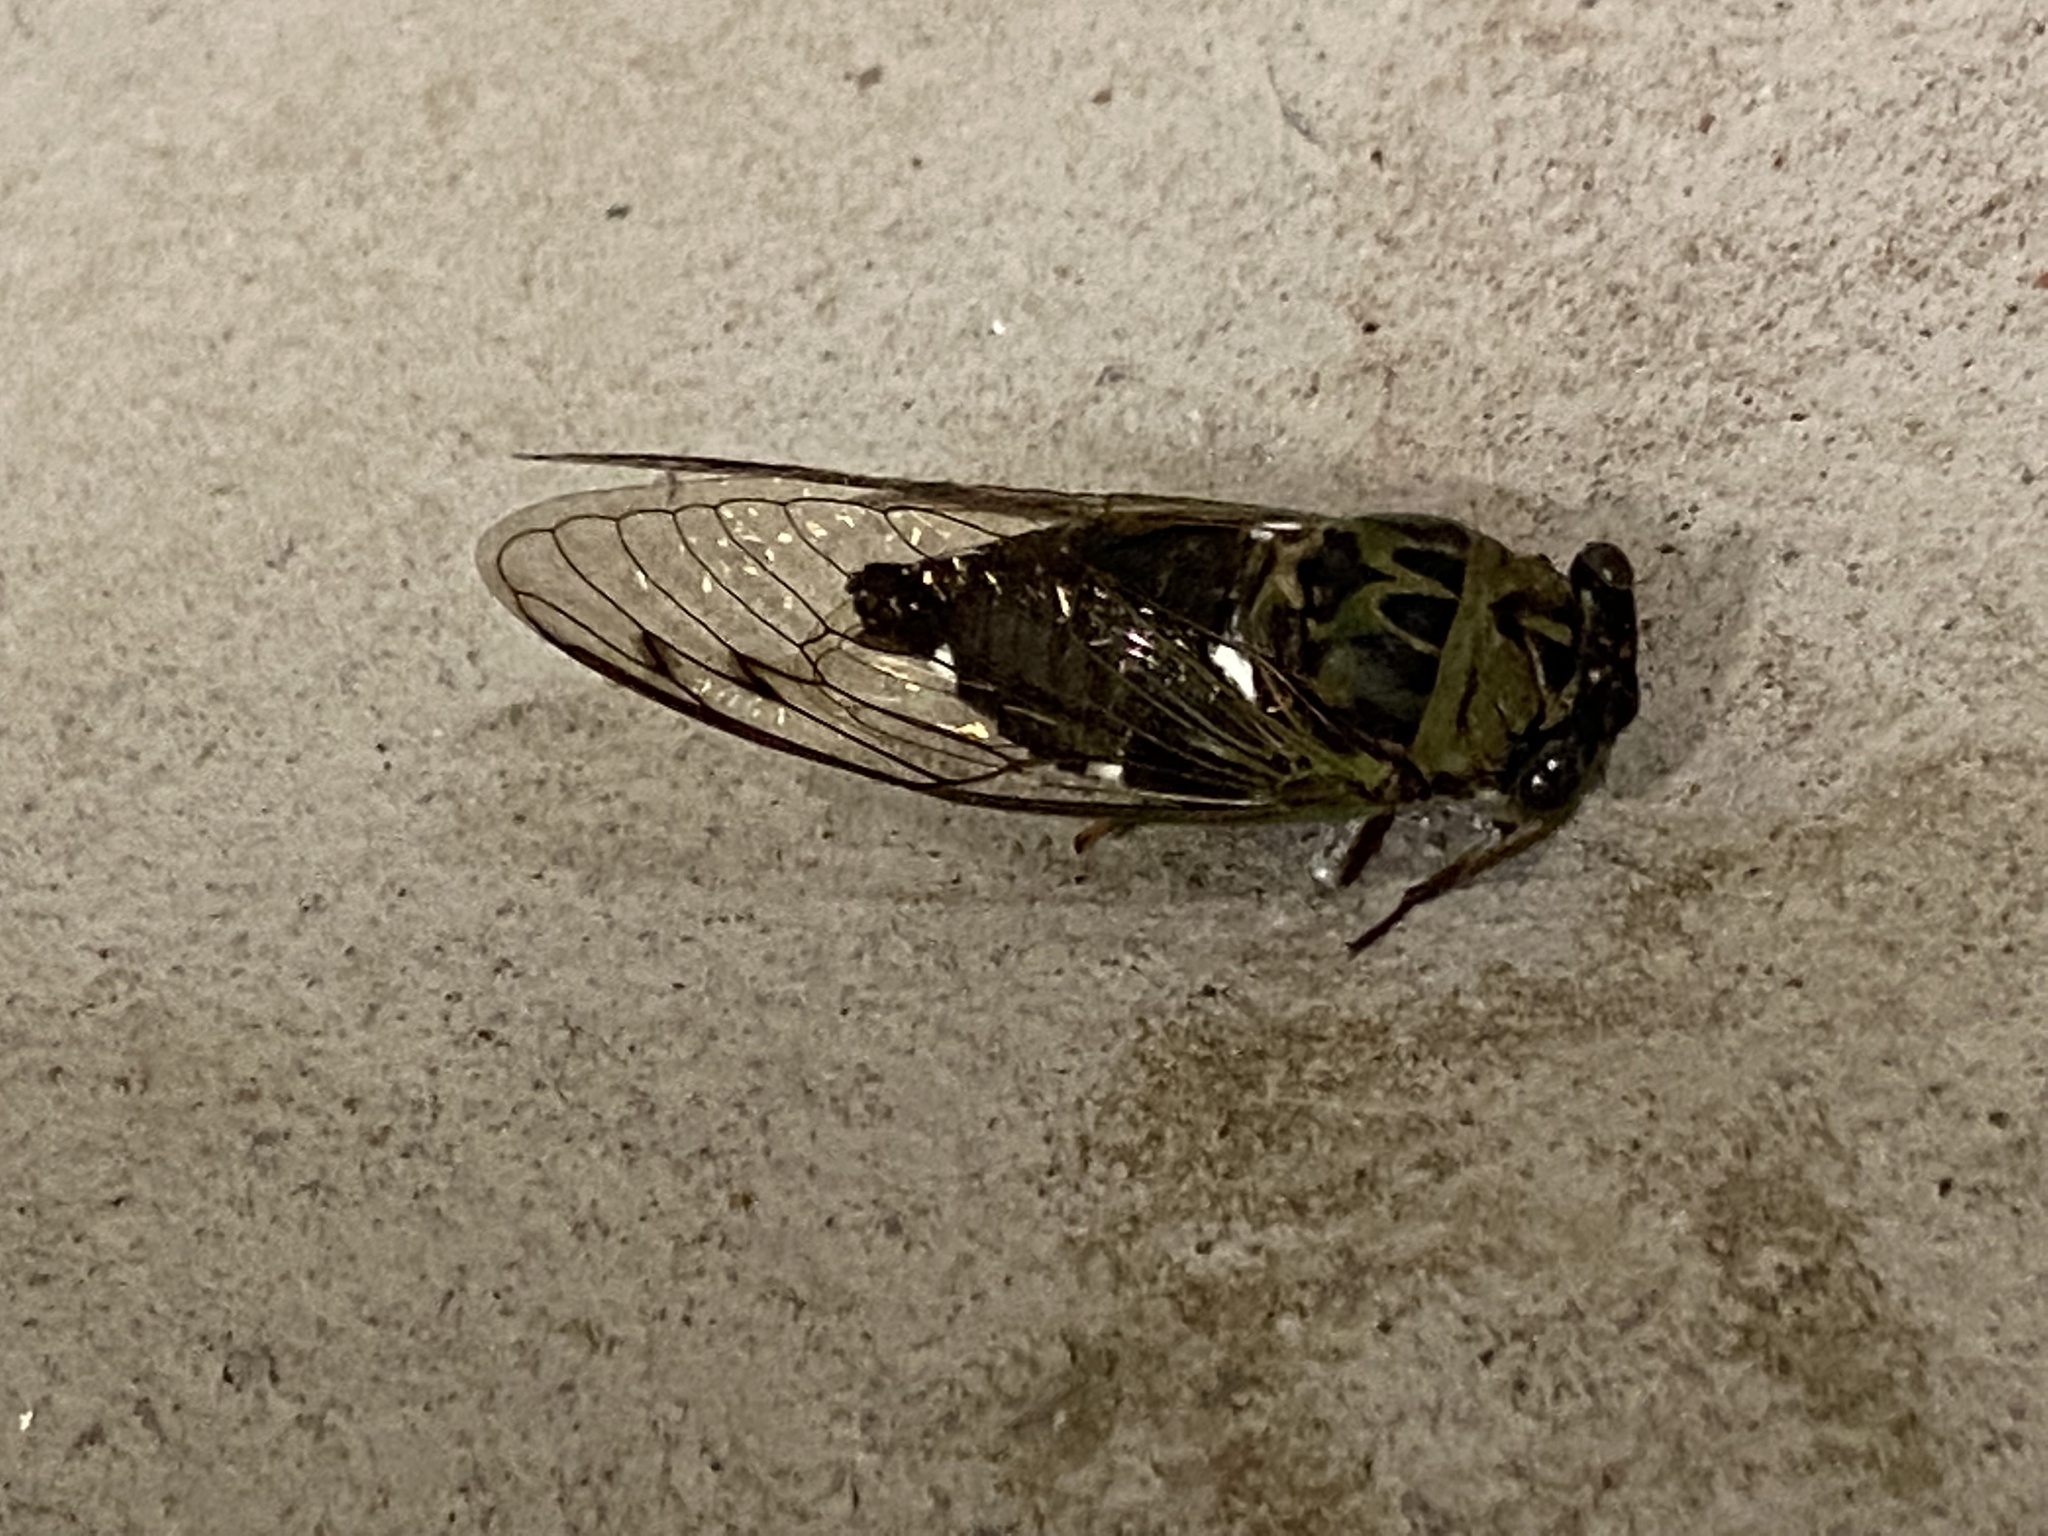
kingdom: Animalia
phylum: Arthropoda
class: Insecta
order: Hemiptera
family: Cicadidae
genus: Neotibicen
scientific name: Neotibicen pruinosus
